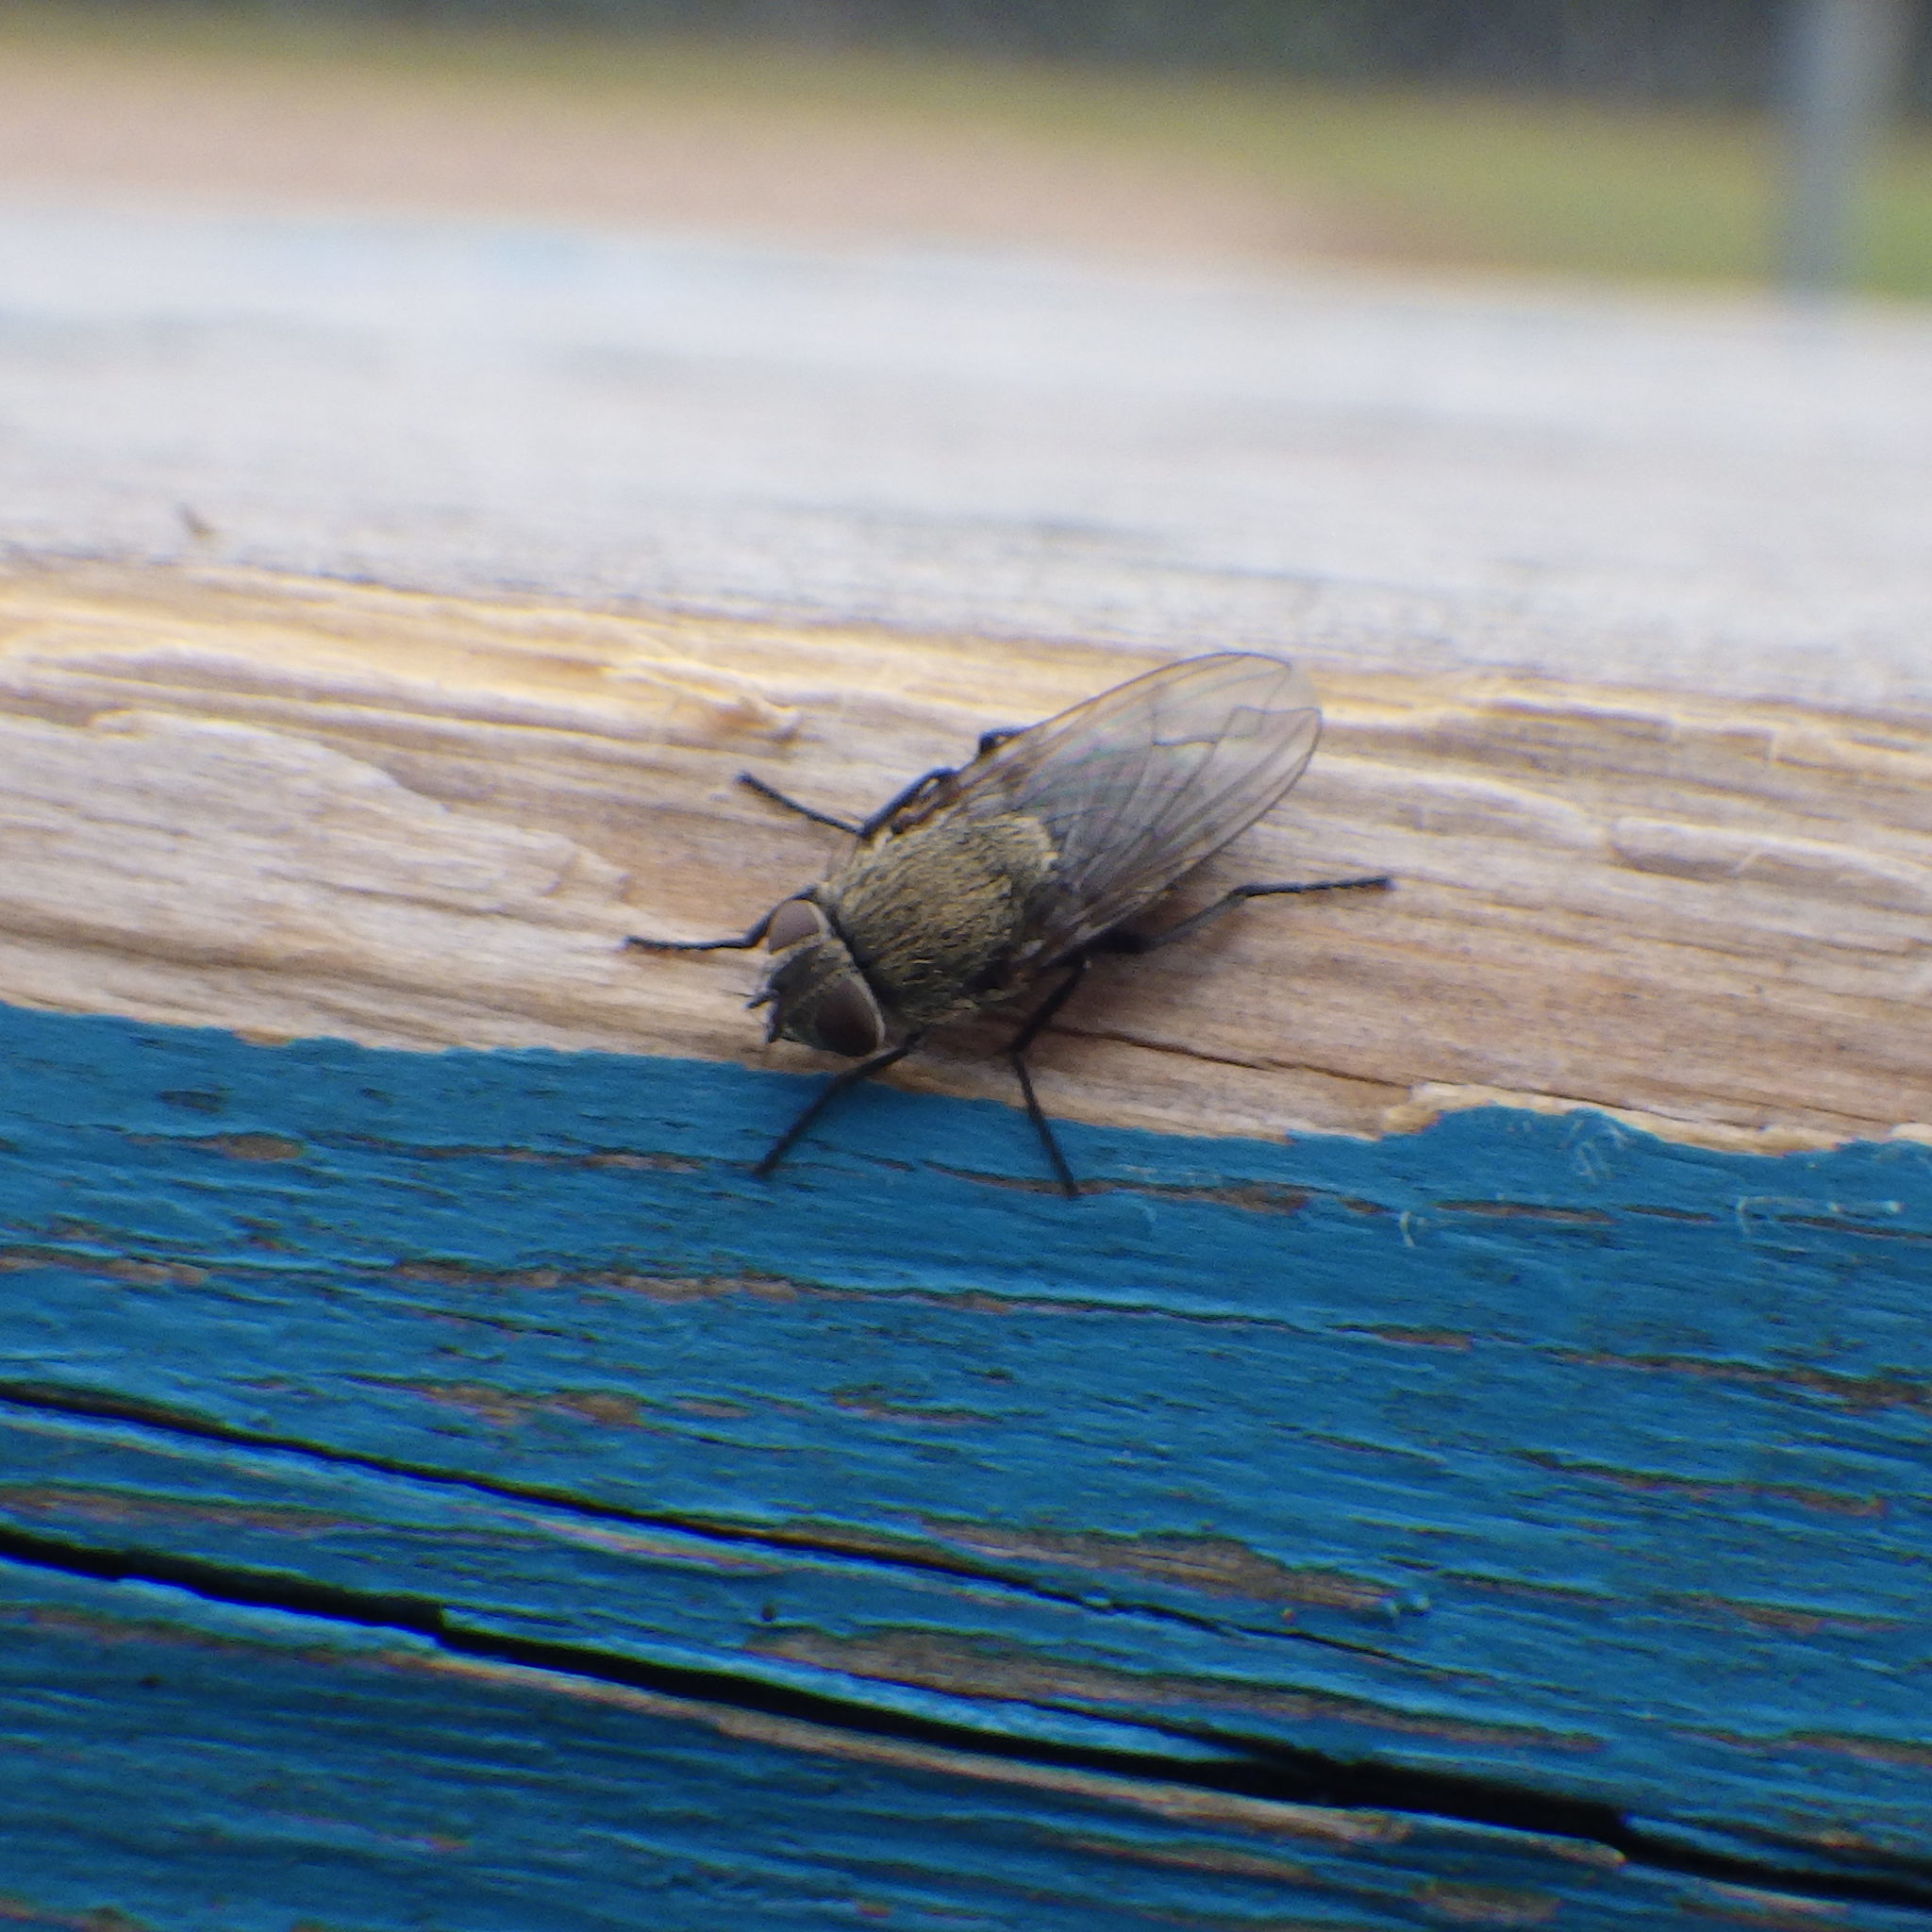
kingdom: Animalia
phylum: Arthropoda
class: Insecta
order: Diptera
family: Polleniidae
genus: Pollenia
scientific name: Pollenia
